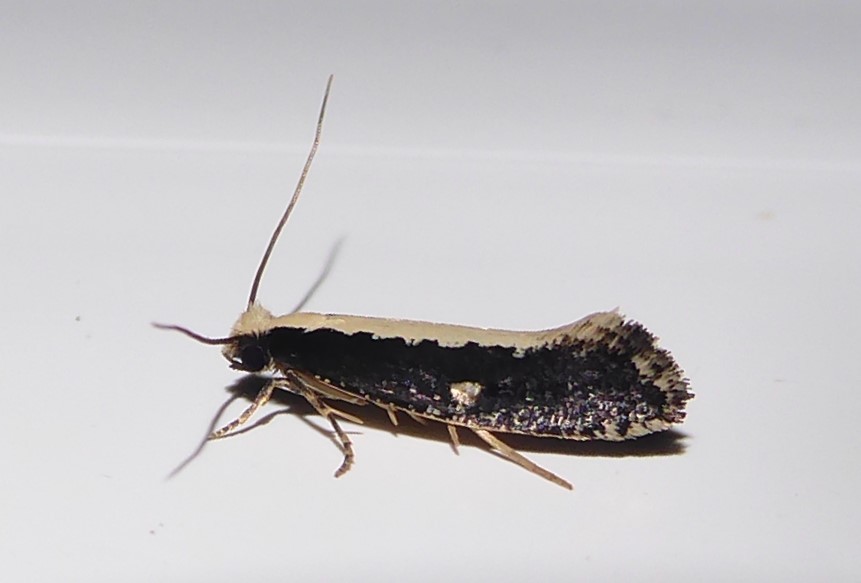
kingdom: Animalia
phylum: Arthropoda
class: Insecta
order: Lepidoptera
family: Tineidae
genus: Monopis
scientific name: Monopis ethelella
